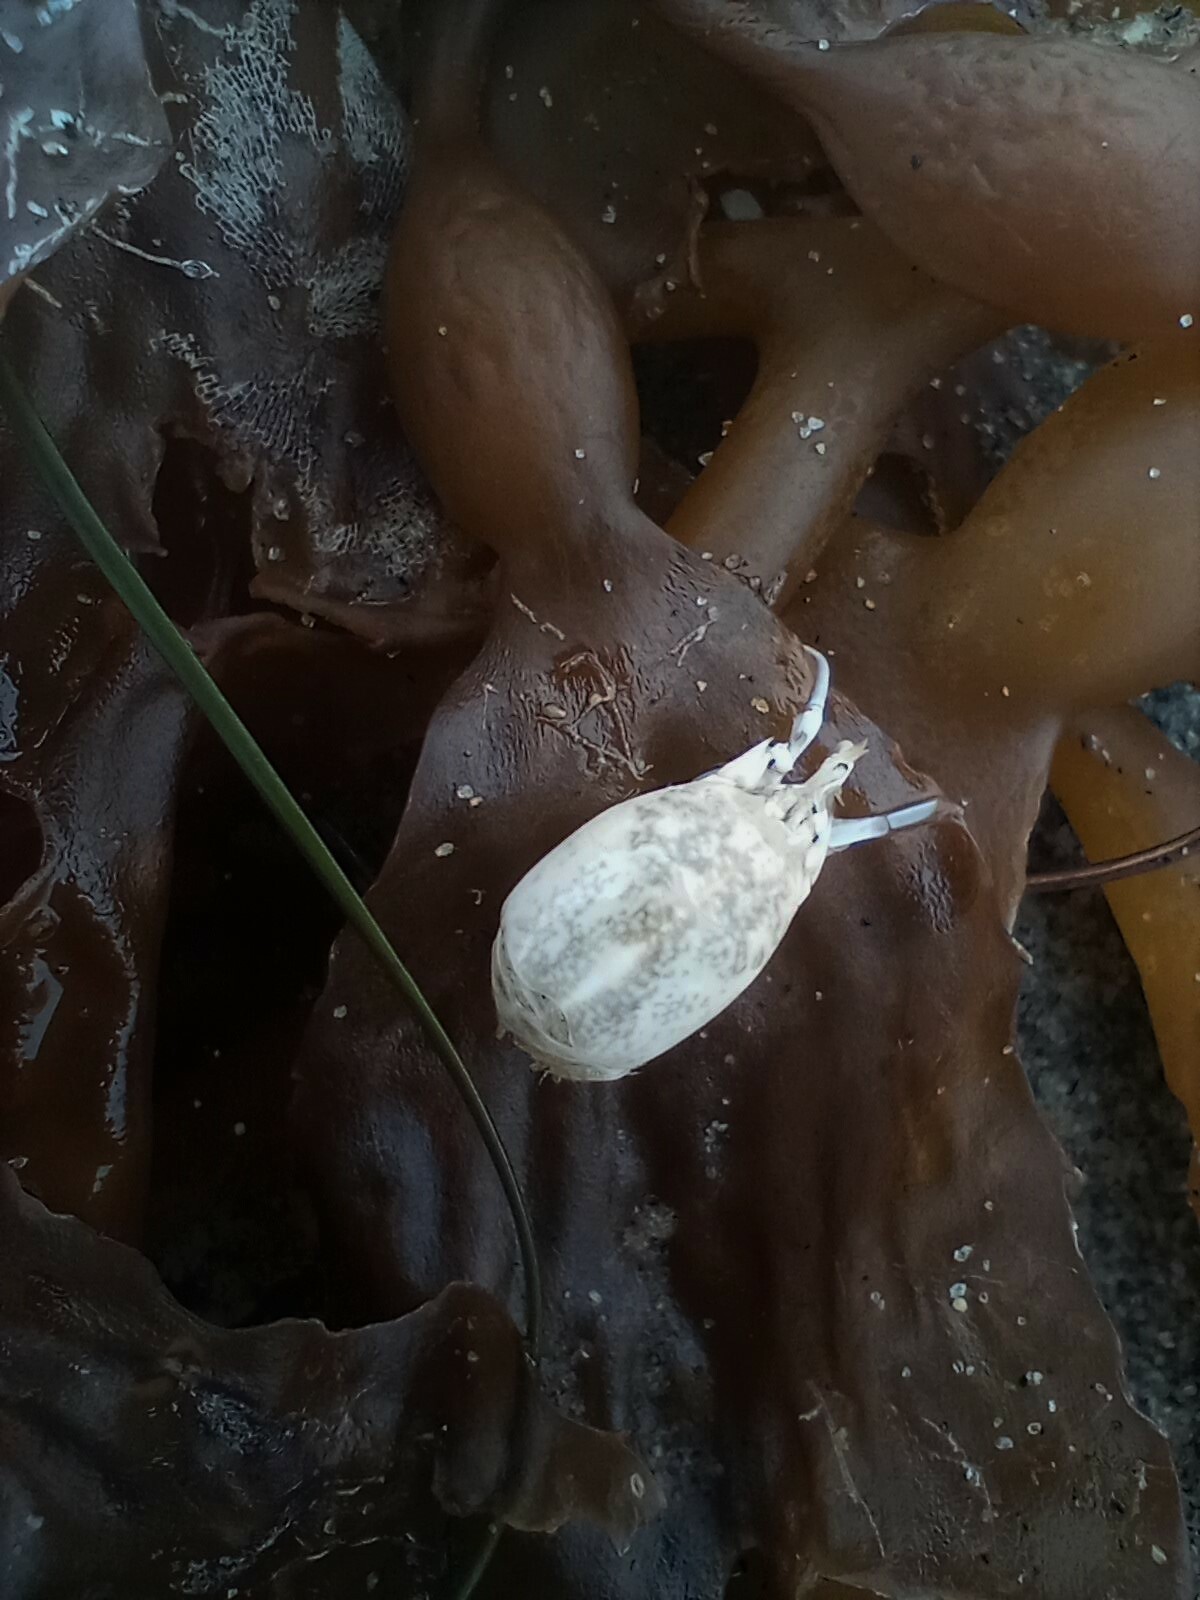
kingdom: Animalia
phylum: Arthropoda
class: Malacostraca
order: Decapoda
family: Hippidae
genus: Emerita
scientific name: Emerita analoga
